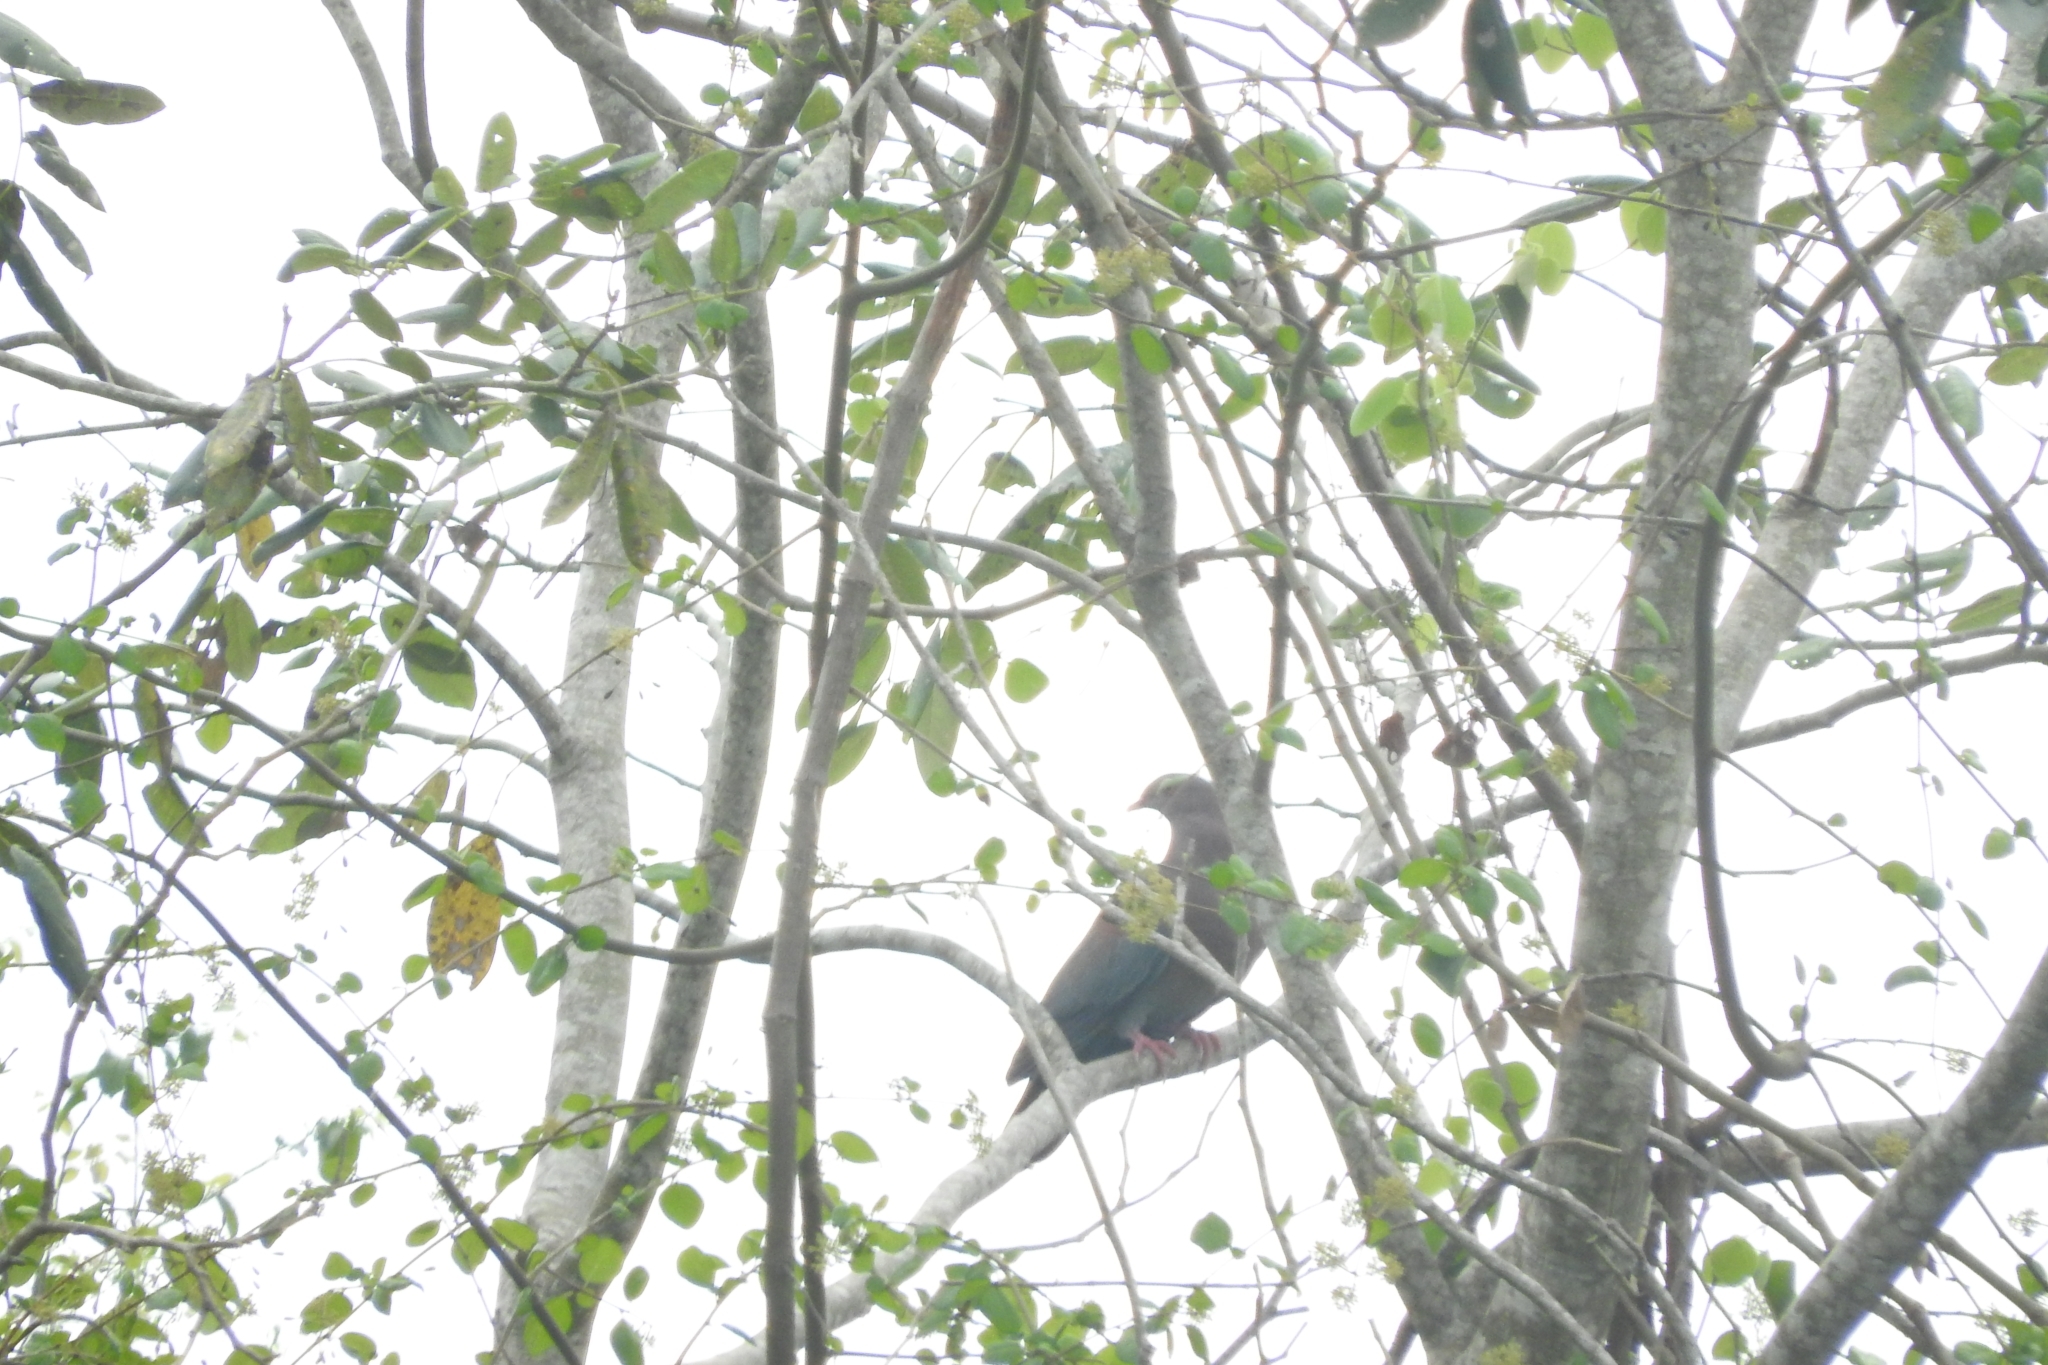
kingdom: Animalia
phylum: Chordata
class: Aves
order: Columbiformes
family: Columbidae
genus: Patagioenas
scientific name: Patagioenas flavirostris
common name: Red-billed pigeon
